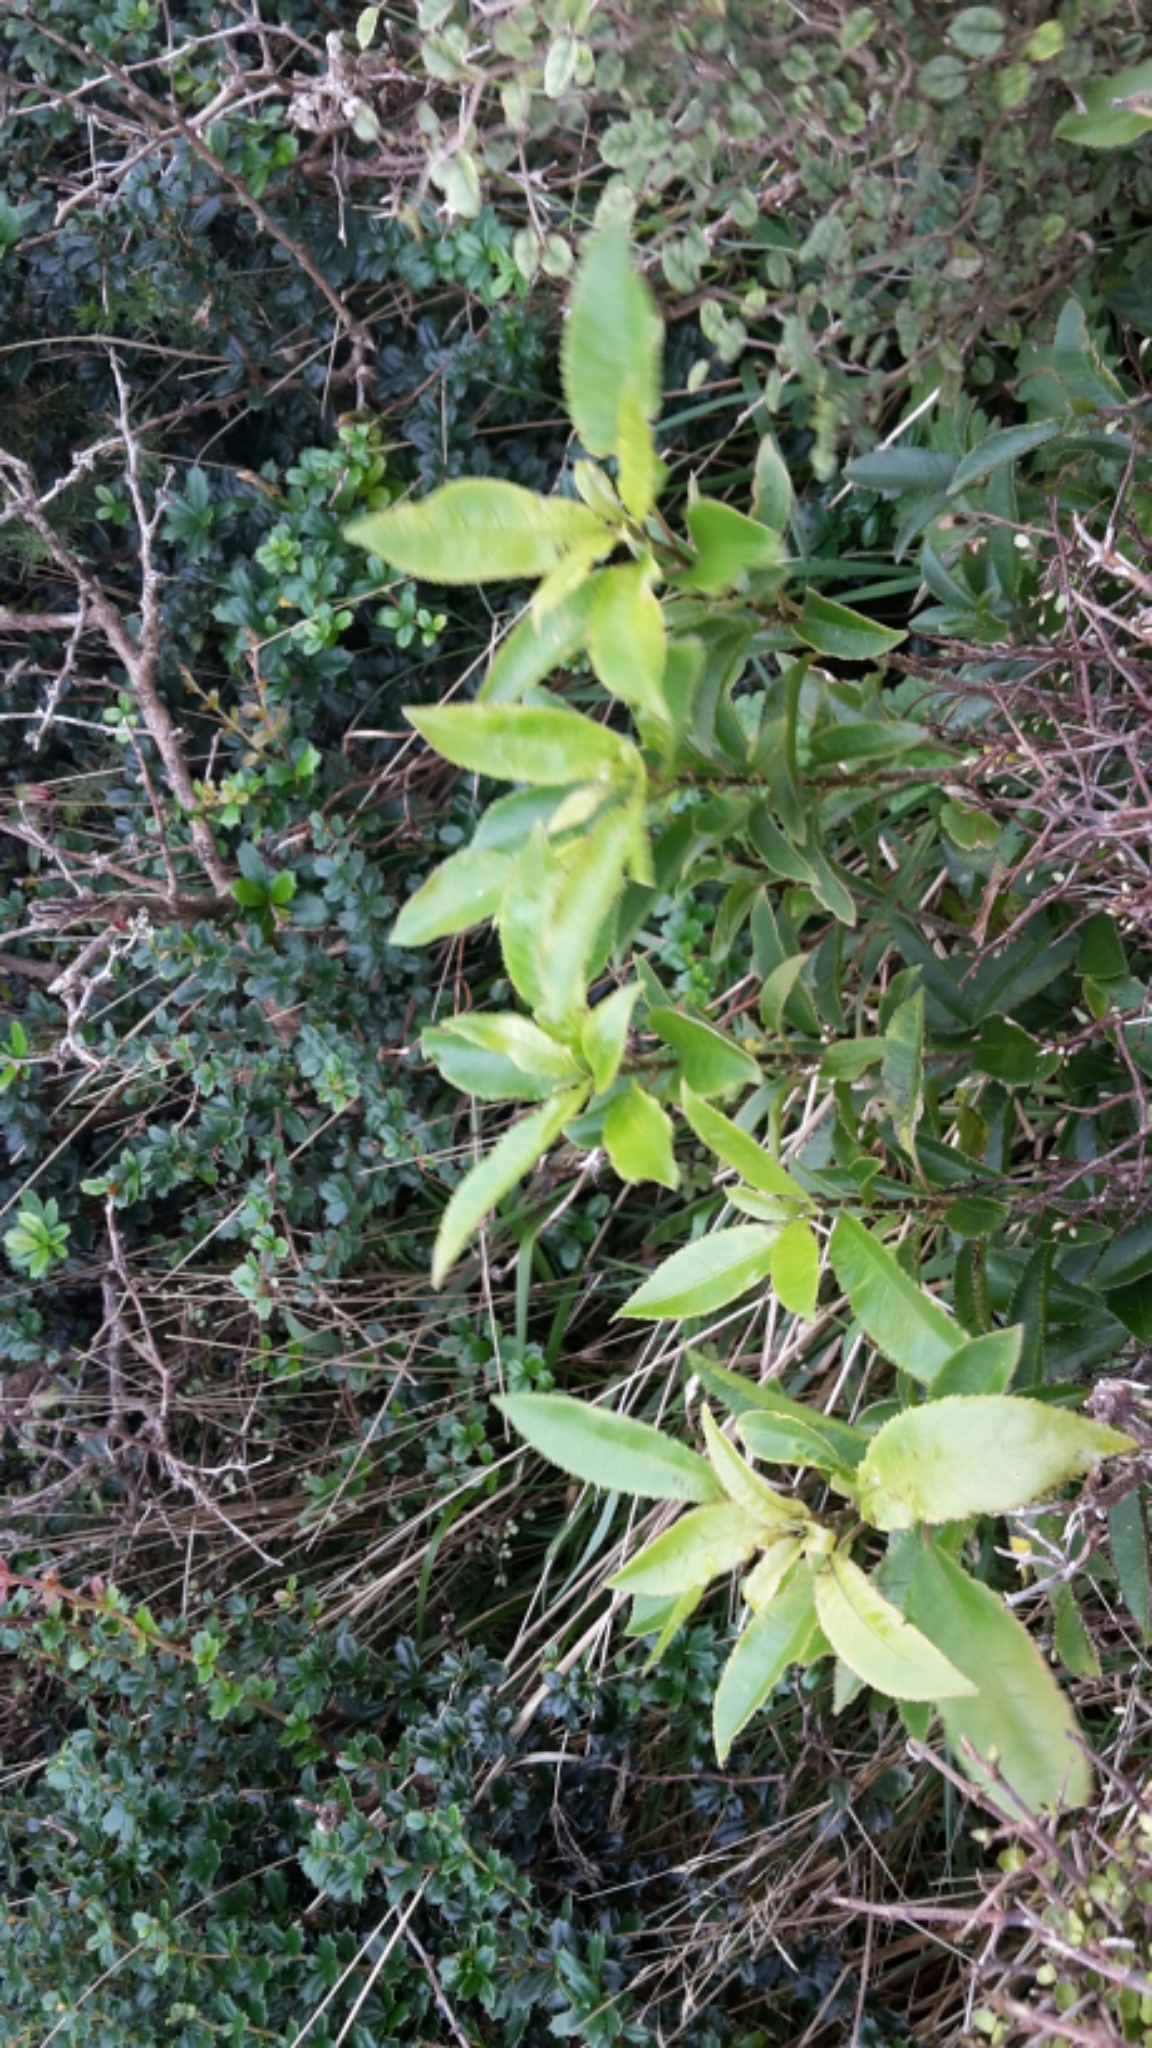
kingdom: Plantae
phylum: Tracheophyta
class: Magnoliopsida
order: Malpighiales
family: Violaceae
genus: Melicytus
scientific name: Melicytus ramiflorus
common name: Mahoe
